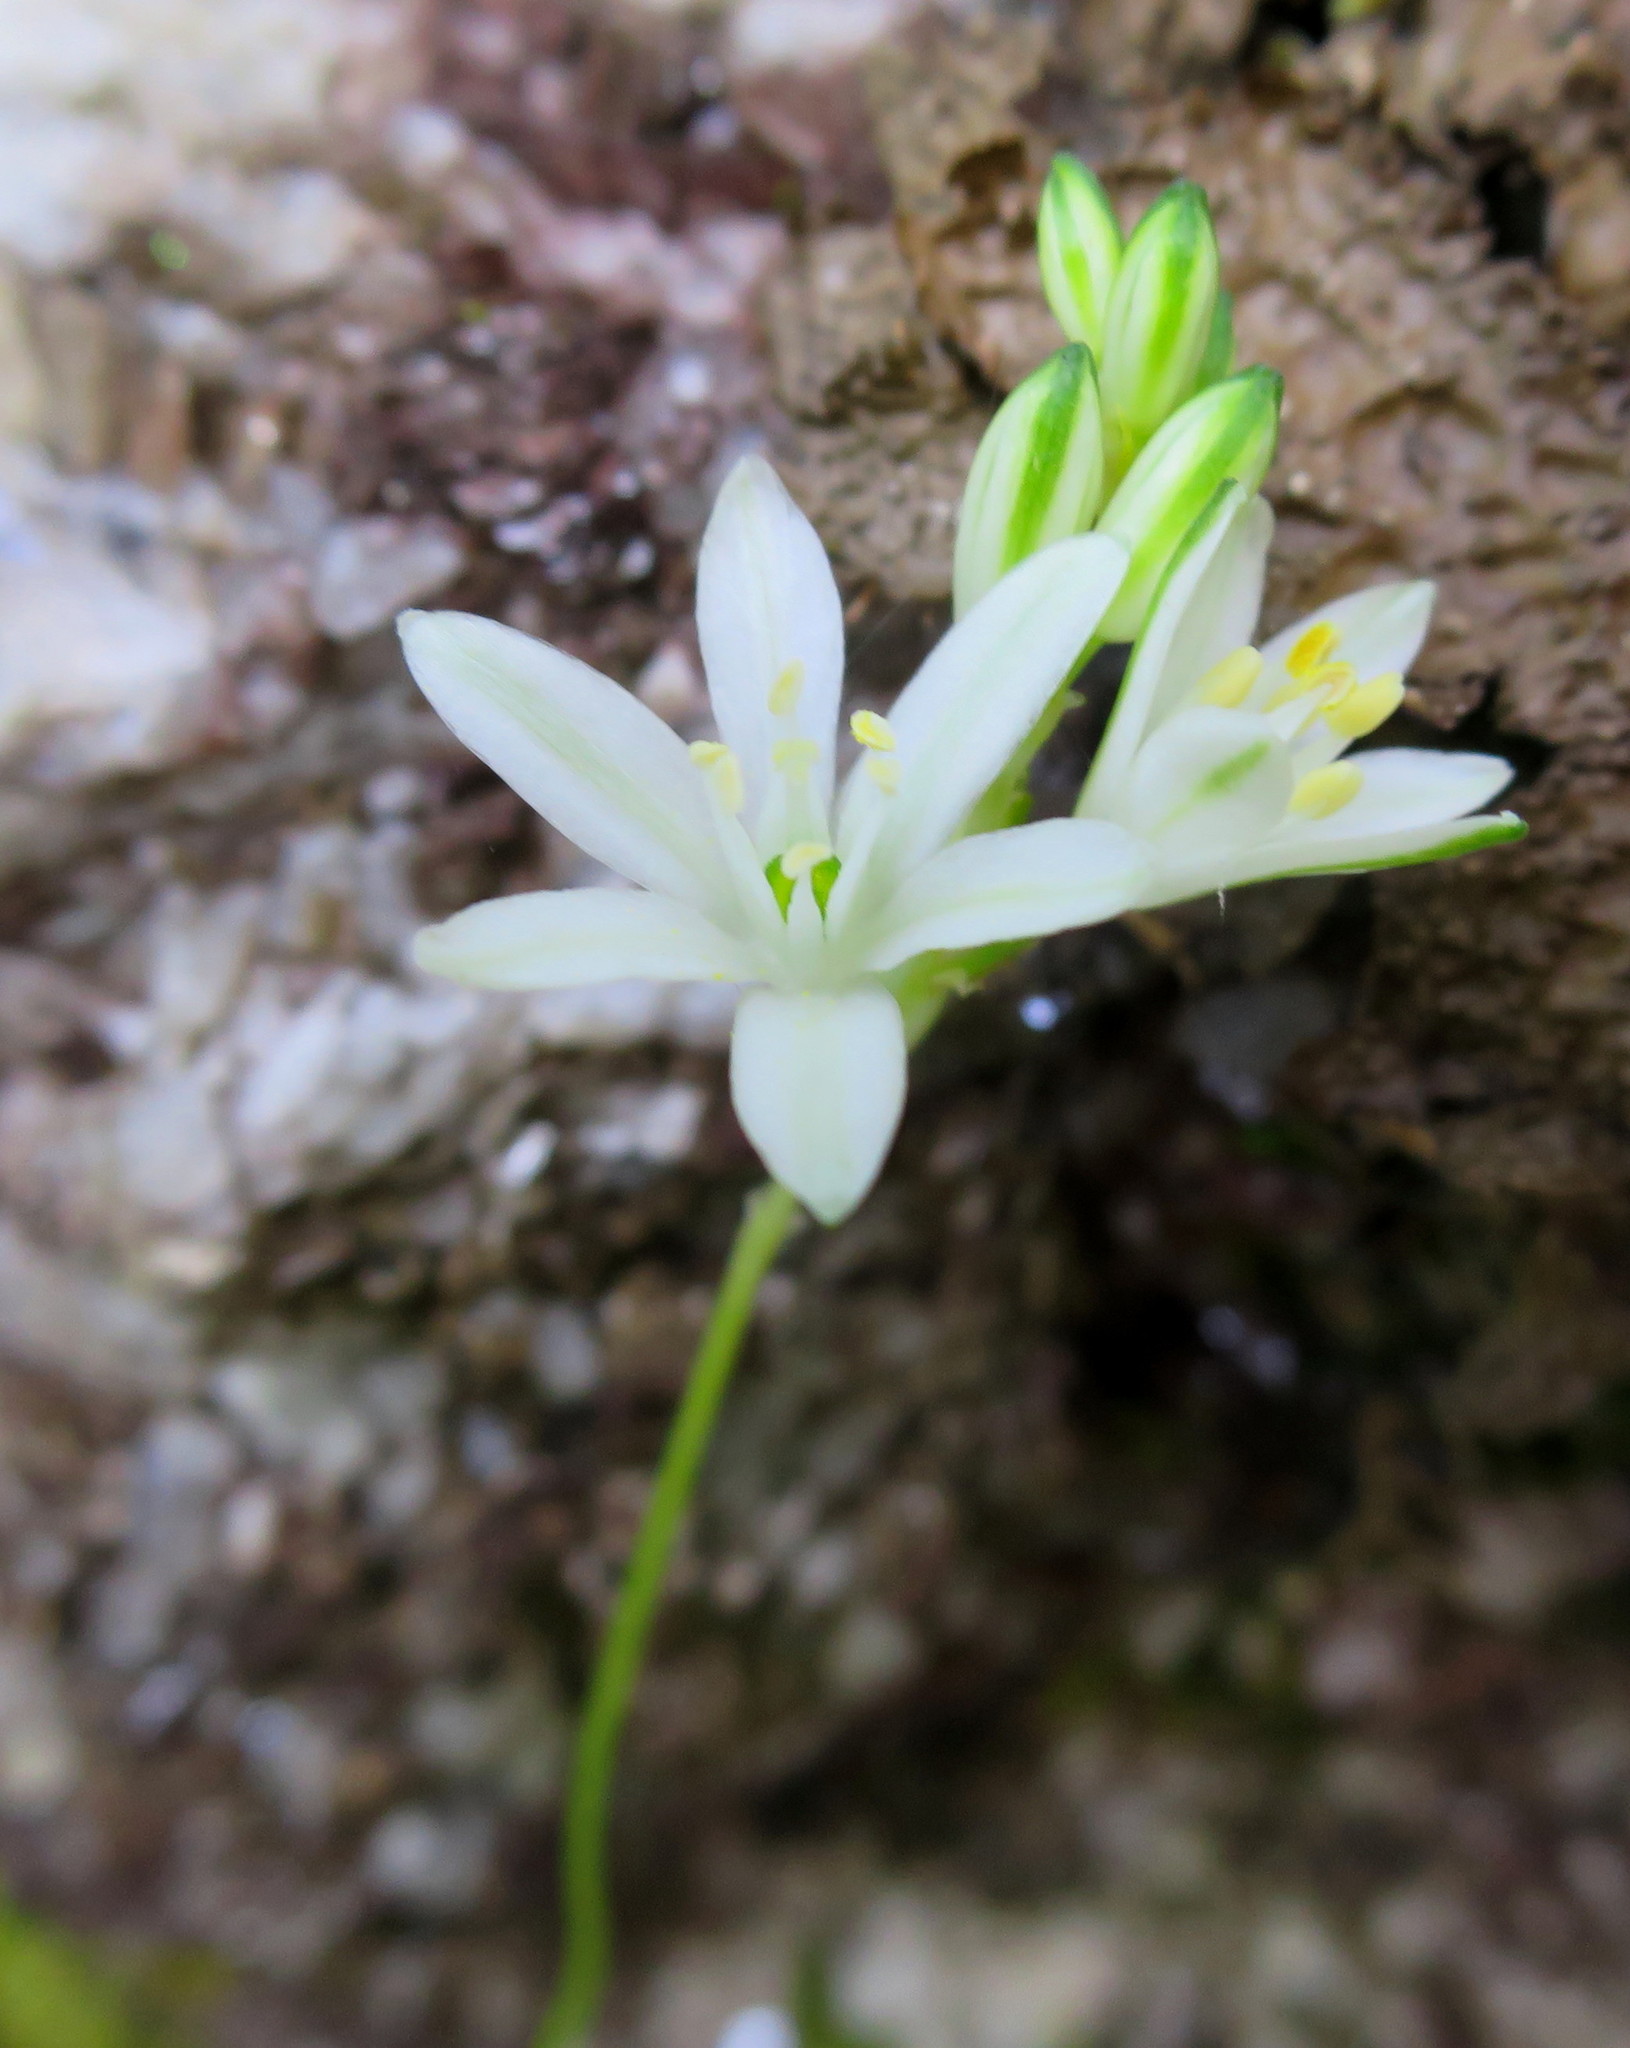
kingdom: Plantae
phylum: Tracheophyta
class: Liliopsida
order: Asparagales
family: Asparagaceae
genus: Ornithogalum
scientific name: Ornithogalum rogersii
